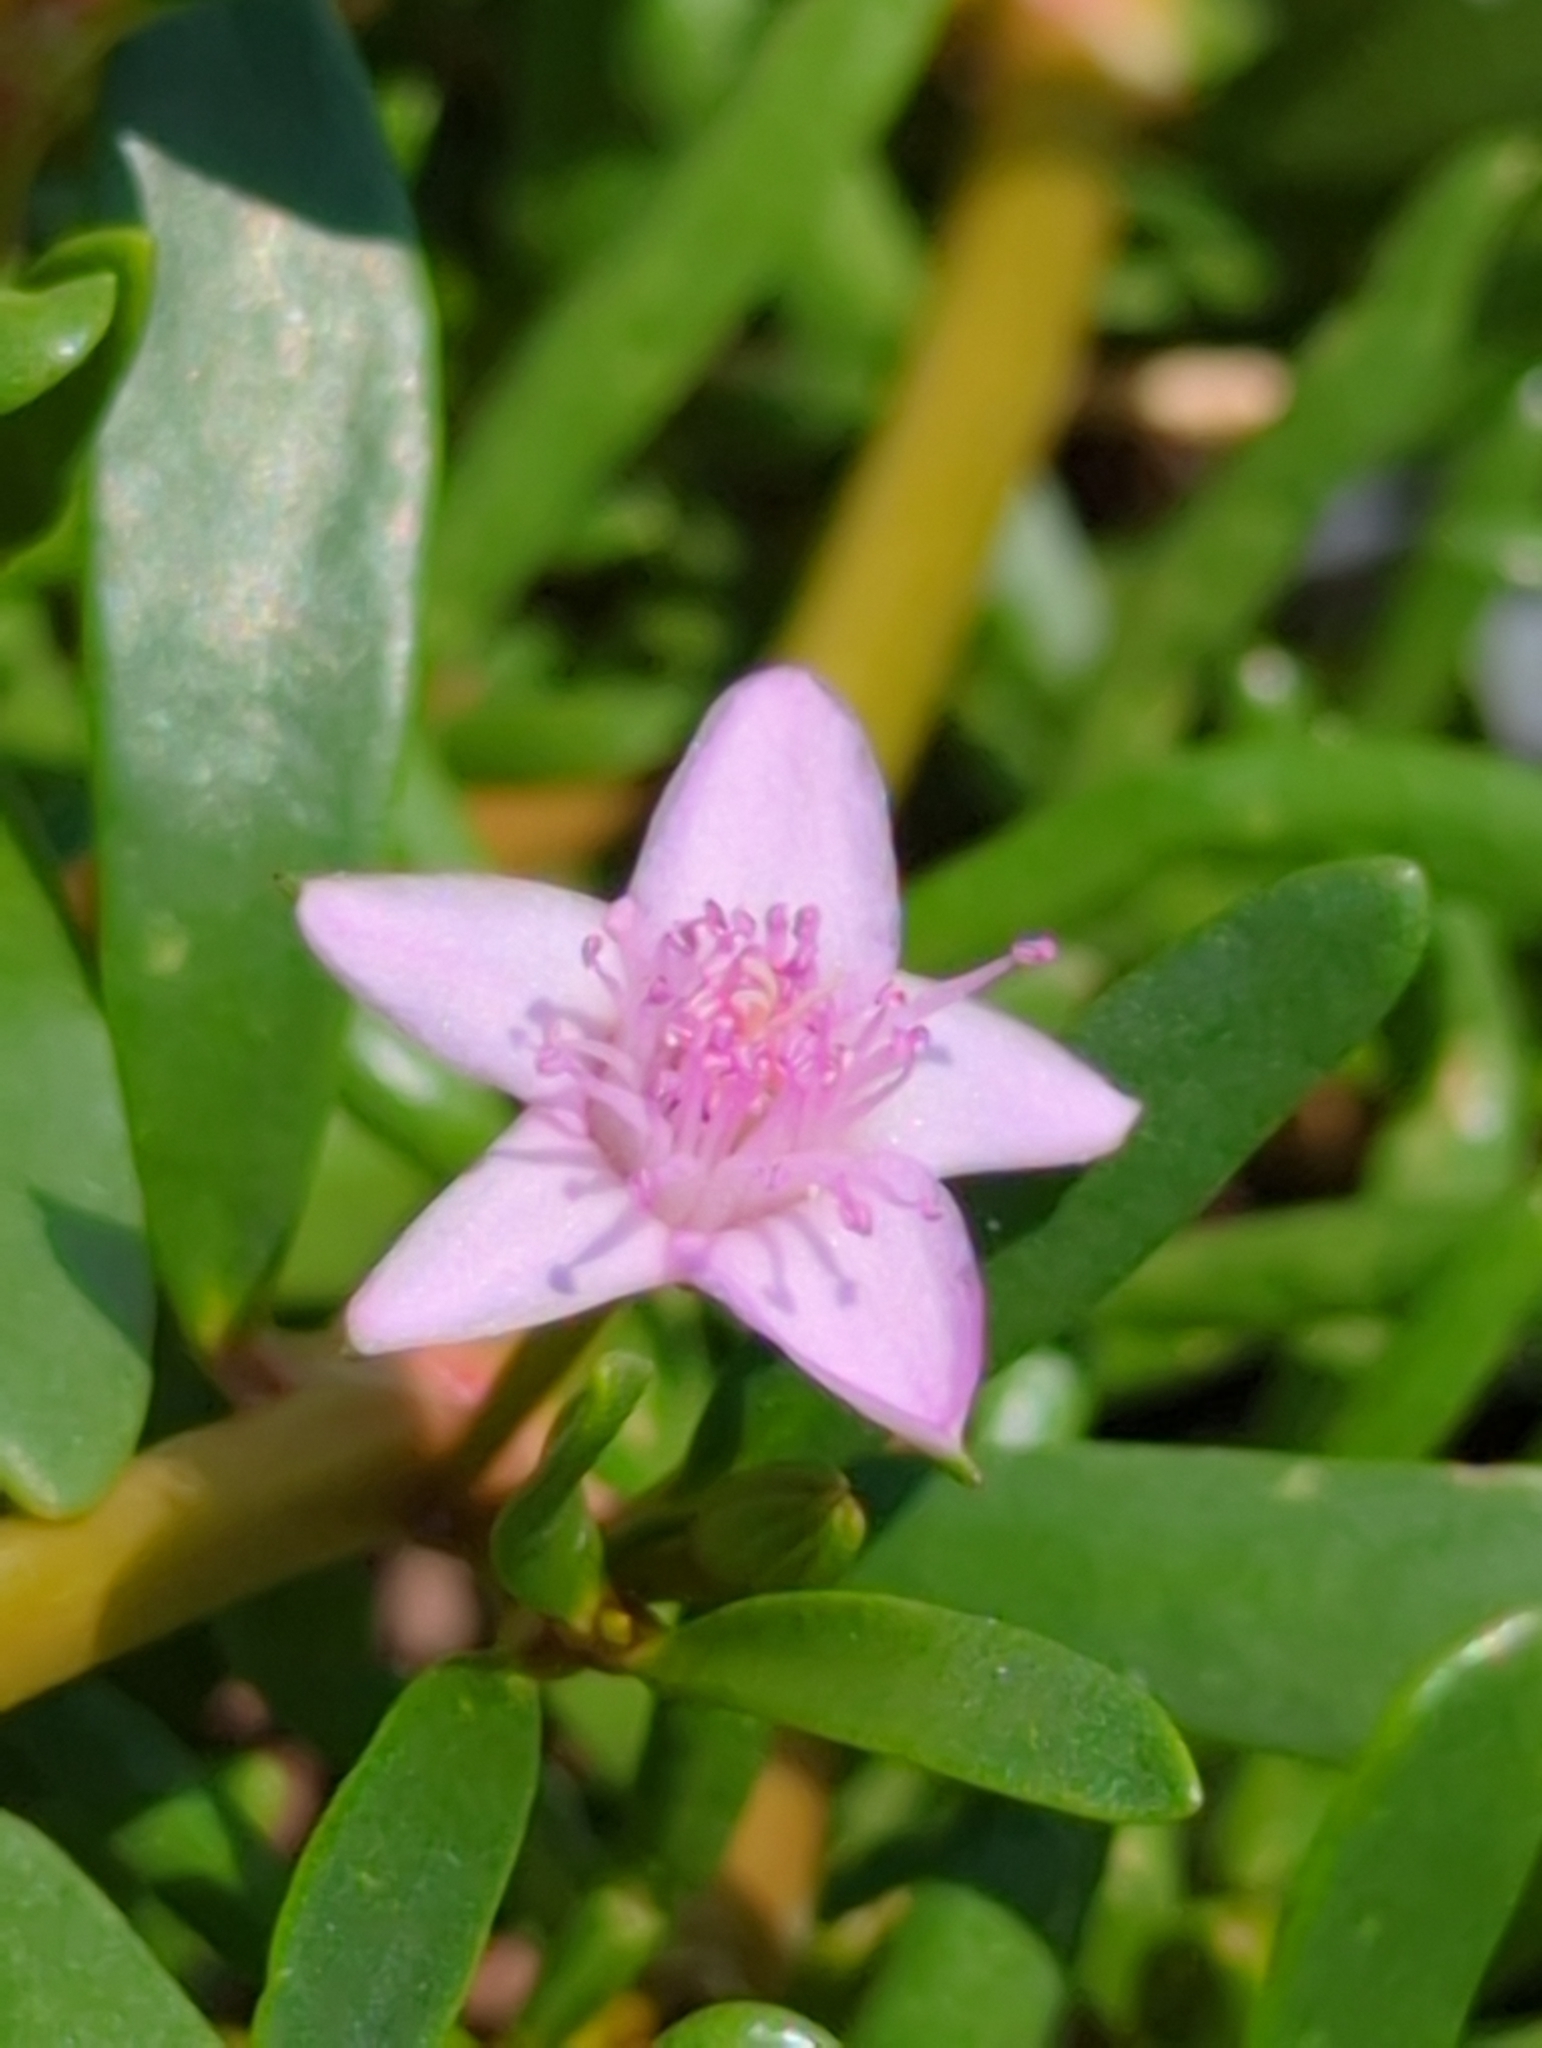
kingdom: Plantae
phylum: Tracheophyta
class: Magnoliopsida
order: Caryophyllales
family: Aizoaceae
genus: Sesuvium
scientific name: Sesuvium portulacastrum
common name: Sea-purslane
